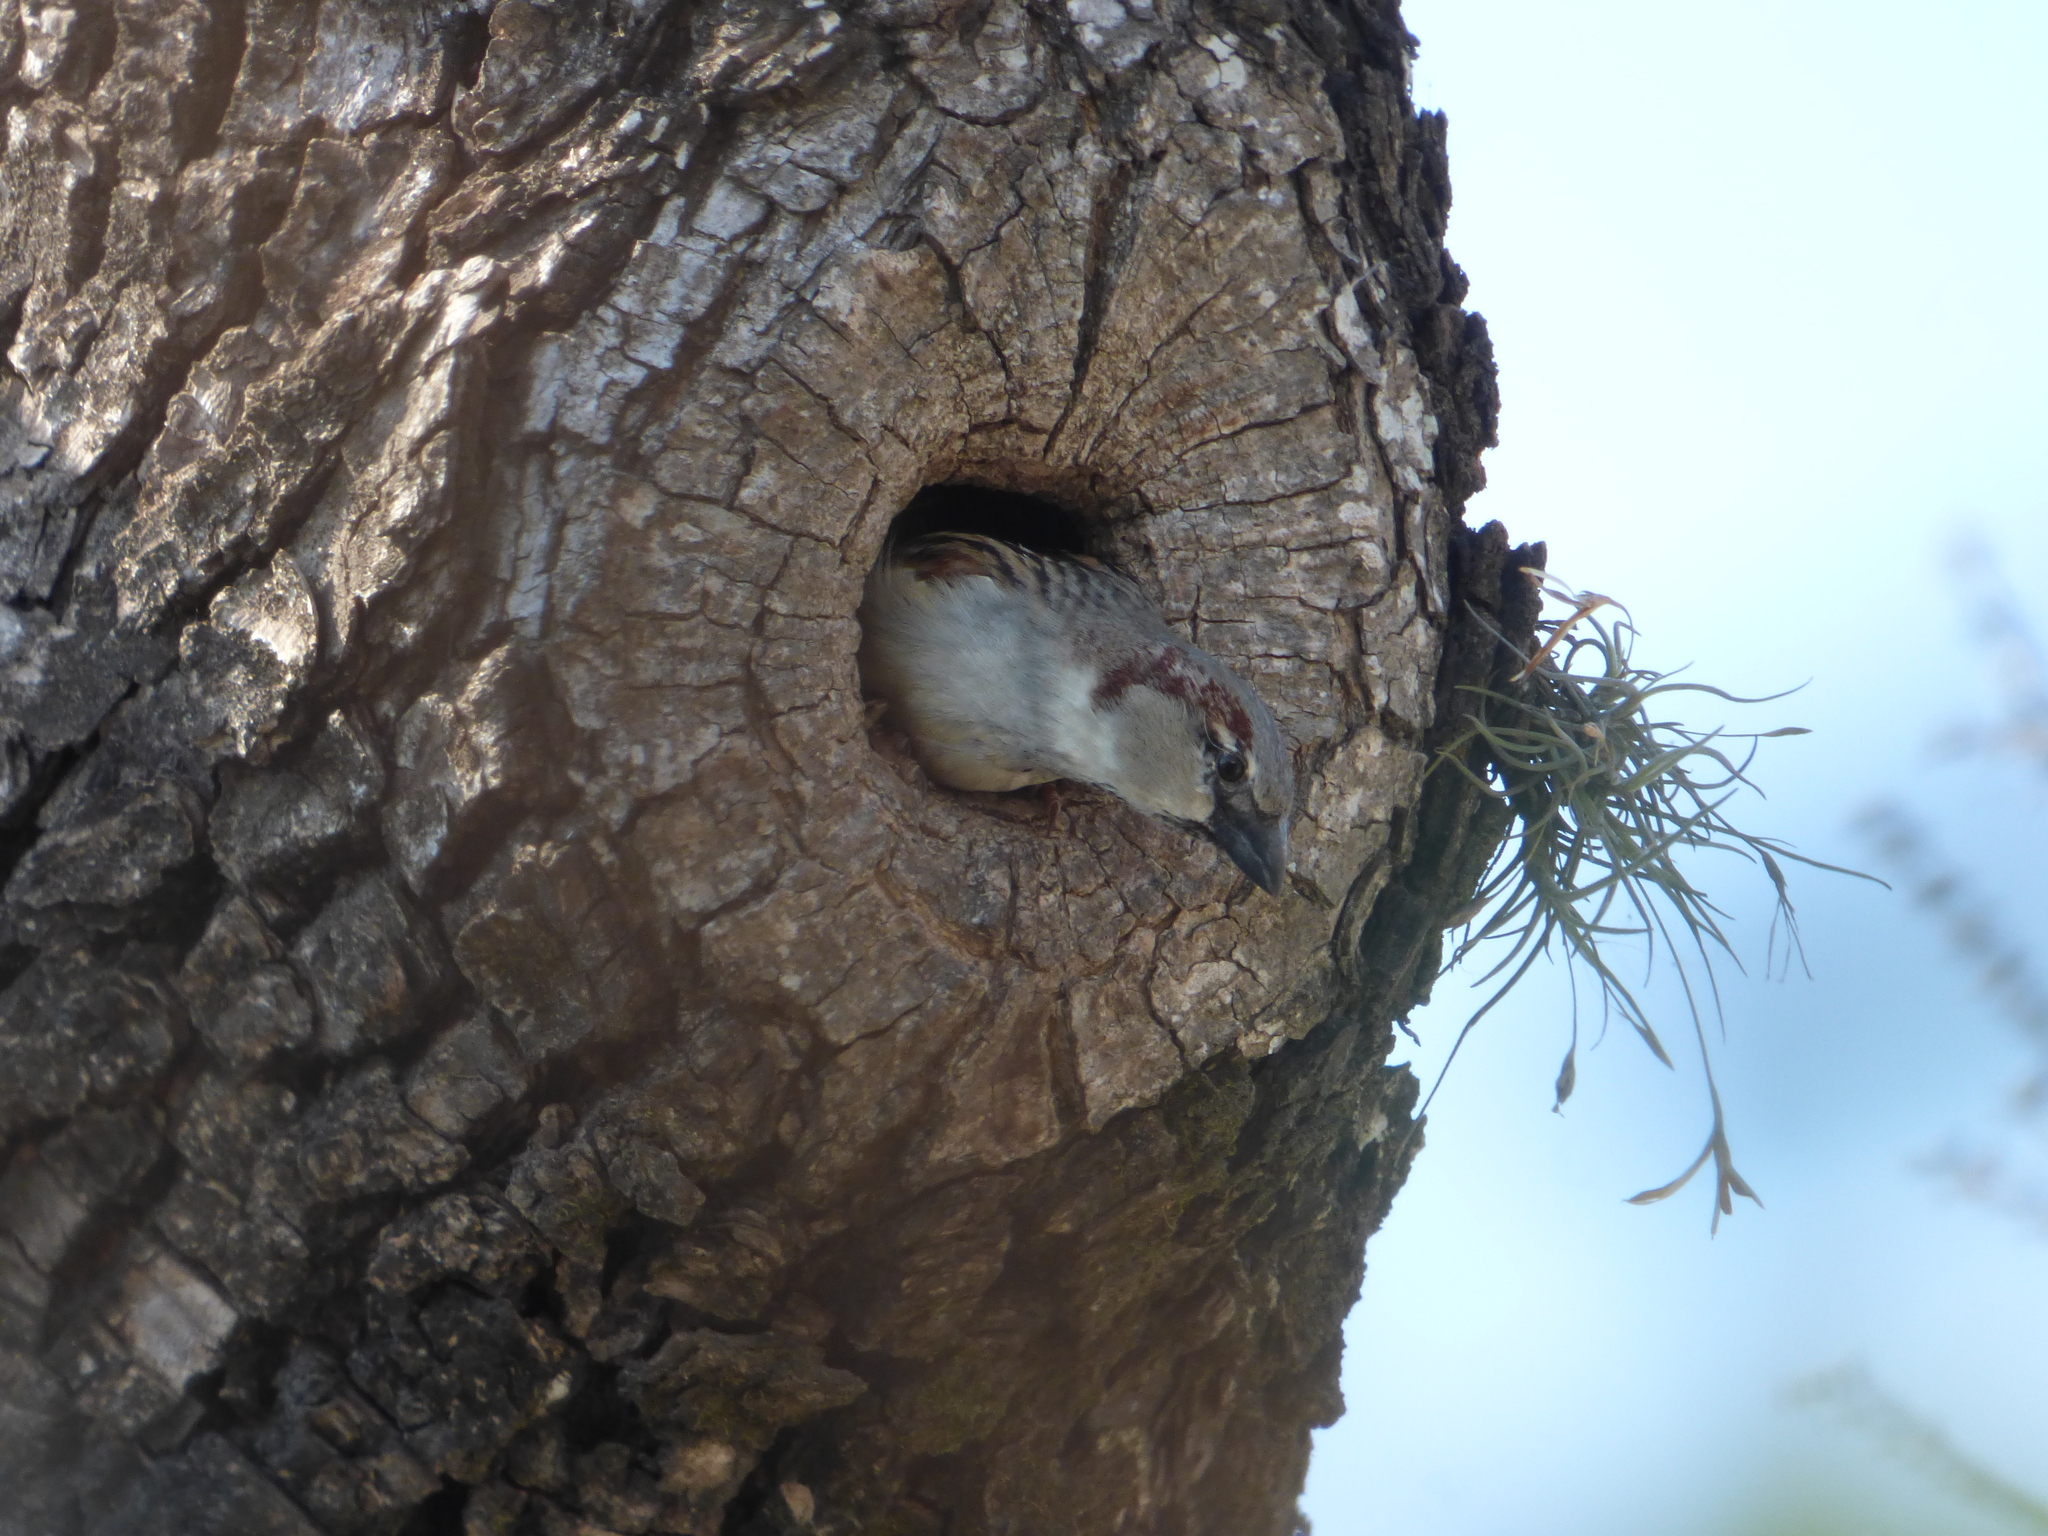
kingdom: Animalia
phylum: Chordata
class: Aves
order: Passeriformes
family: Passeridae
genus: Passer
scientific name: Passer domesticus
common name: House sparrow
